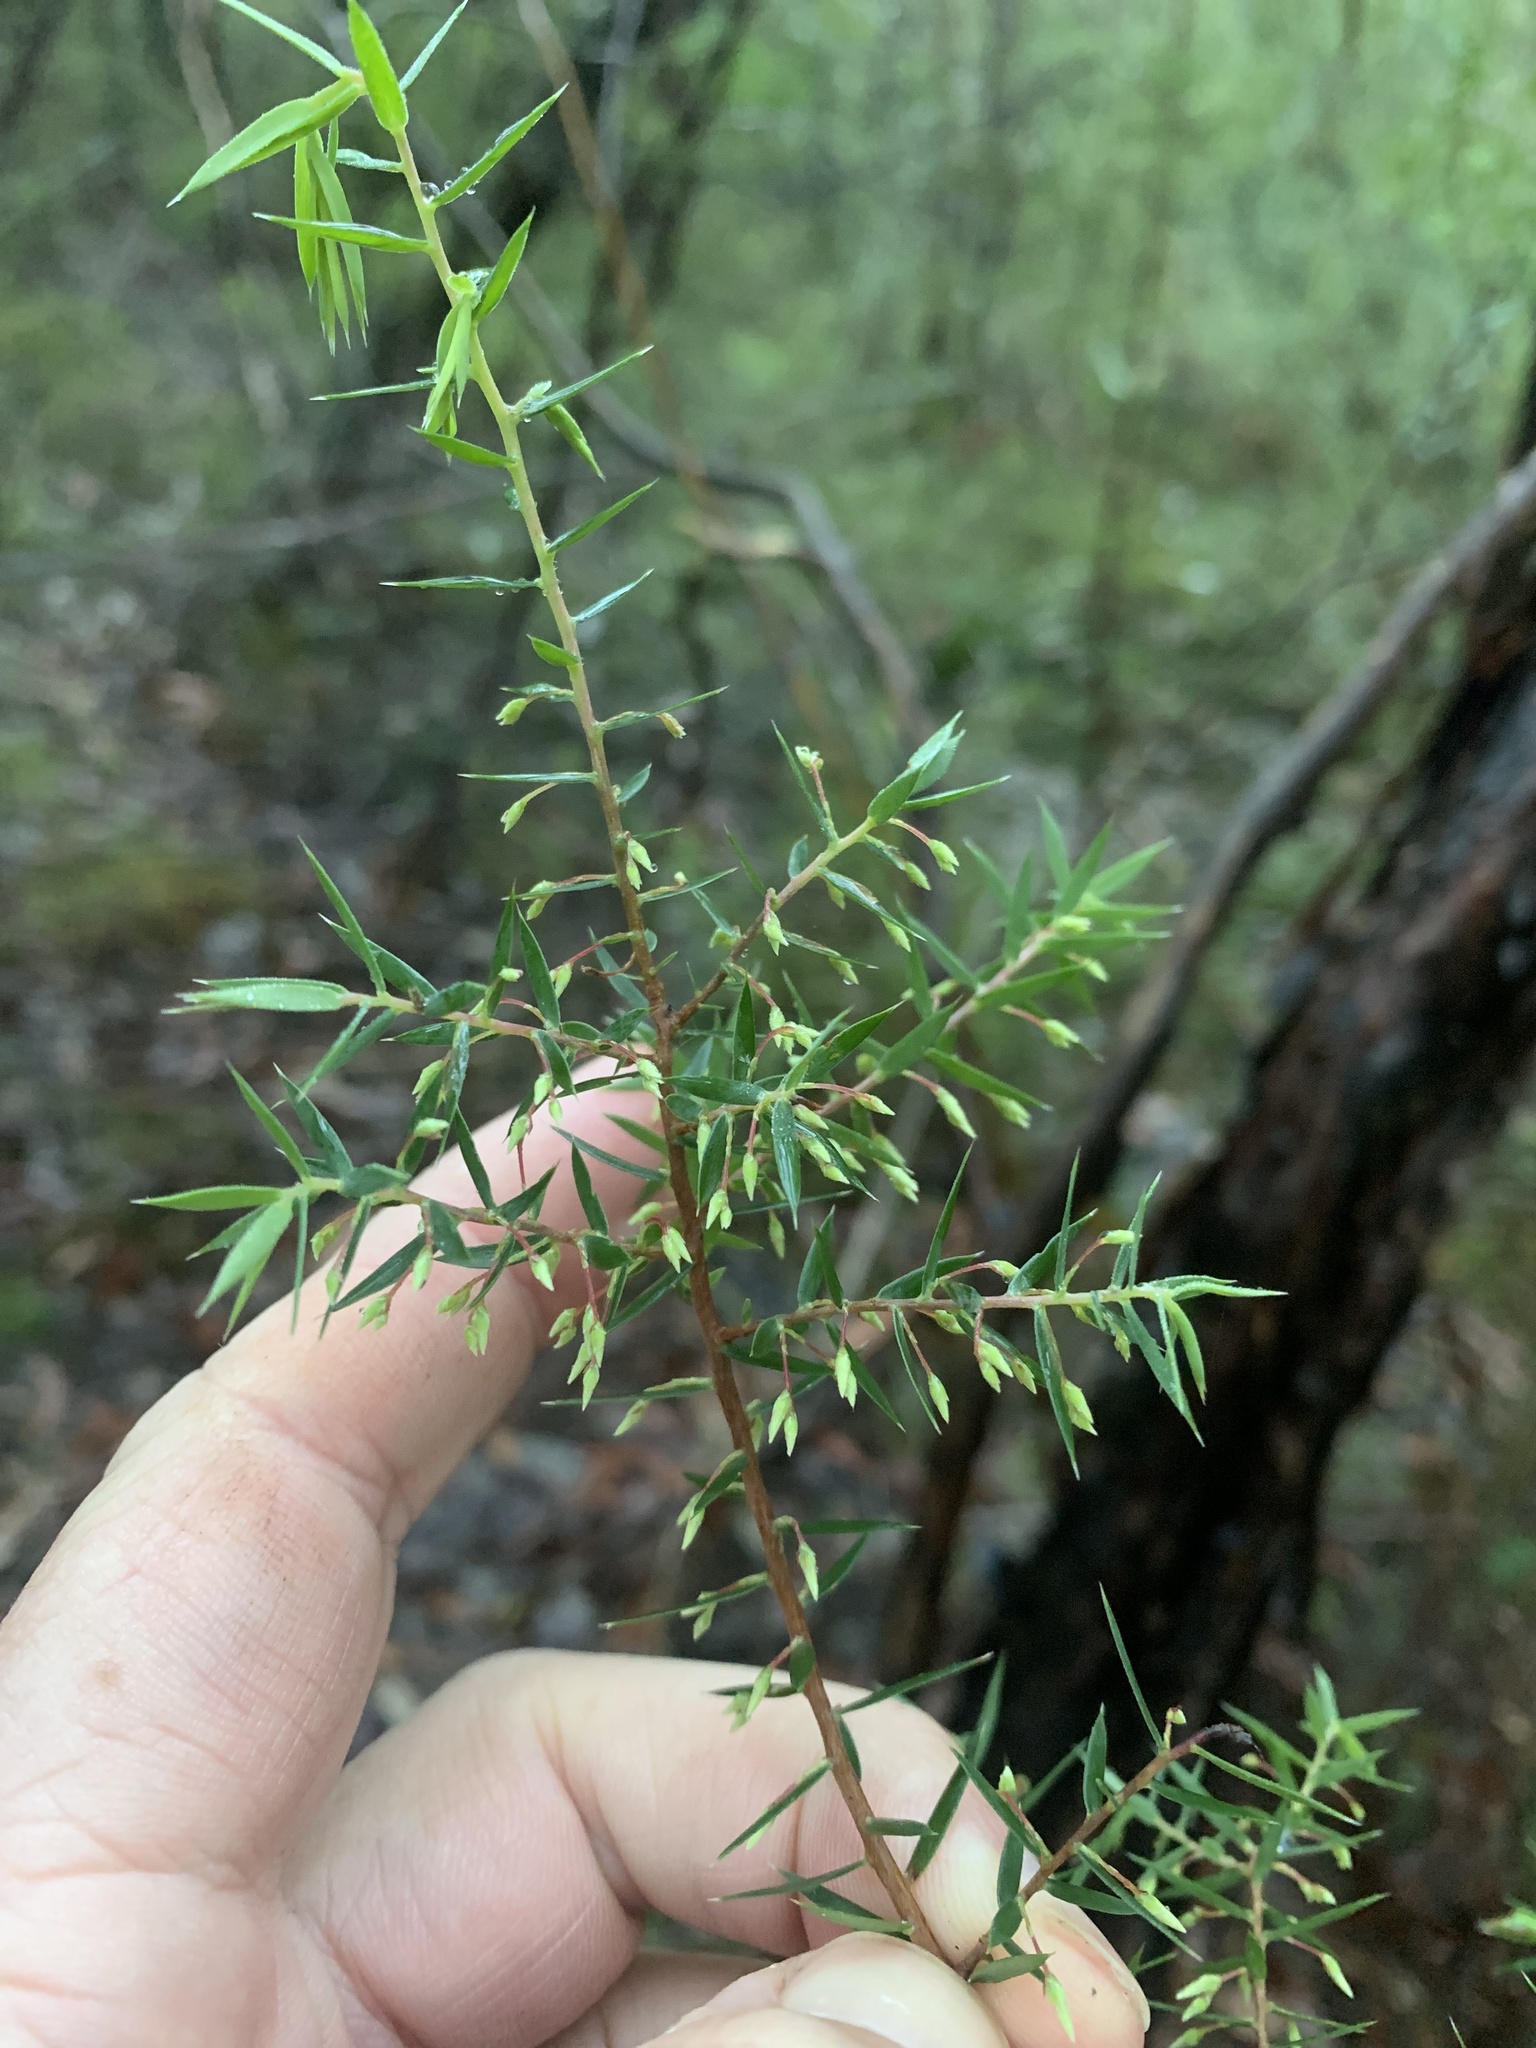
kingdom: Plantae
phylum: Tracheophyta
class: Magnoliopsida
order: Ericales
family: Ericaceae
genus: Styphelia
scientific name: Styphelia setigera
